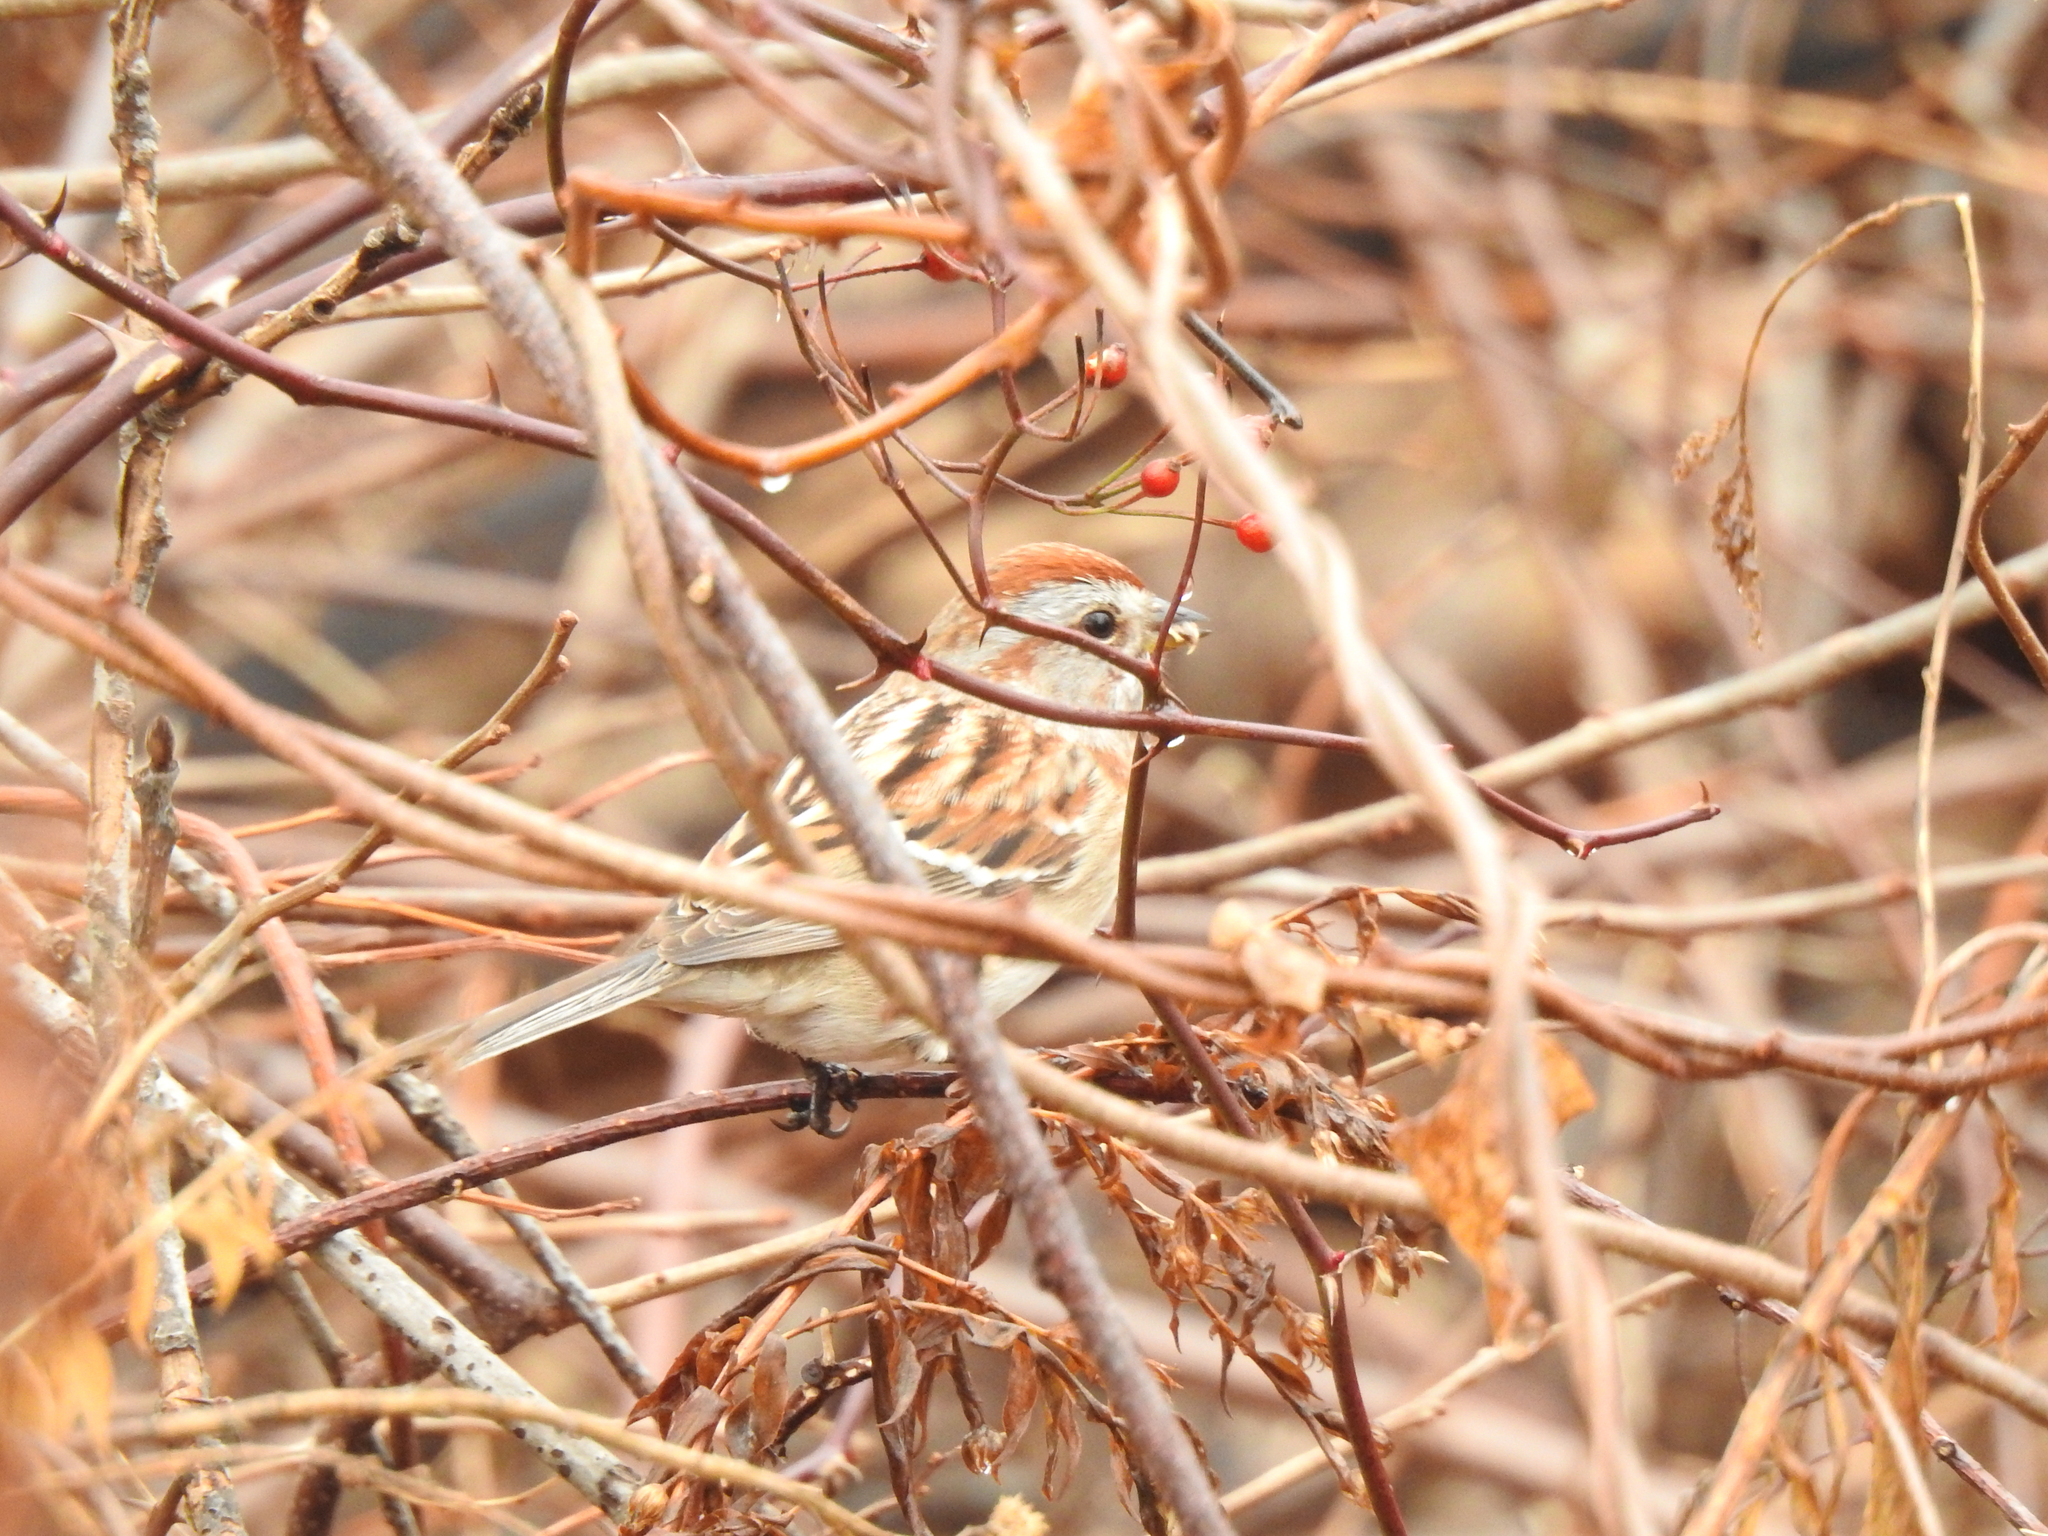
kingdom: Animalia
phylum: Chordata
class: Aves
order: Passeriformes
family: Passerellidae
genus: Spizelloides
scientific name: Spizelloides arborea
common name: American tree sparrow
